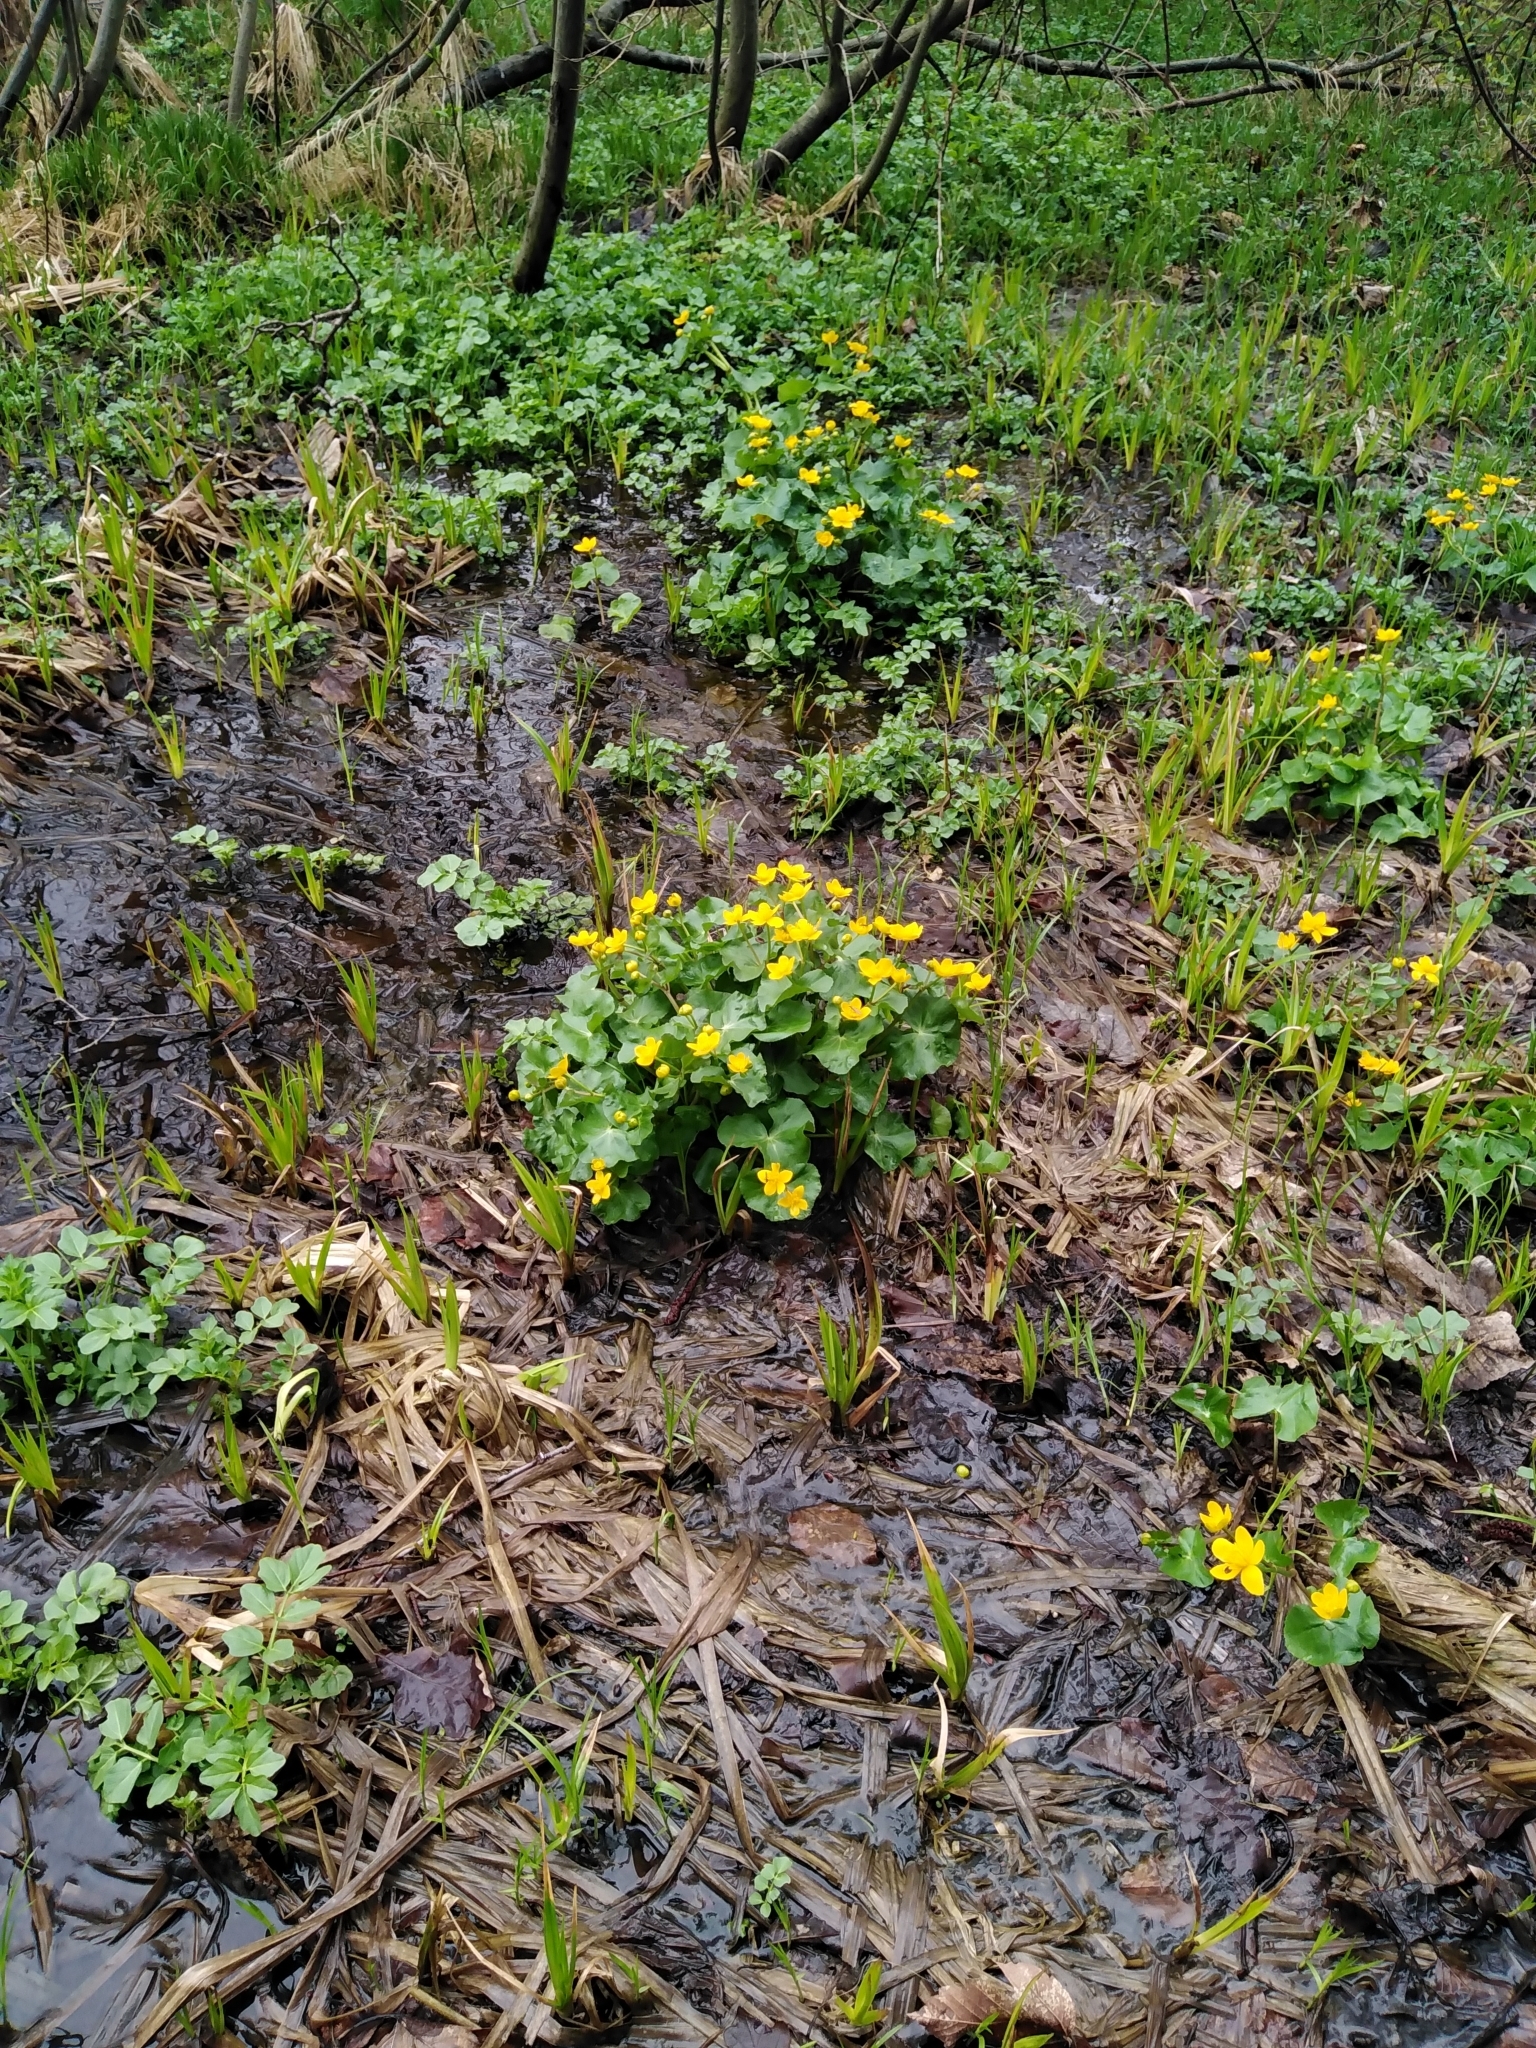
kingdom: Plantae
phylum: Tracheophyta
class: Magnoliopsida
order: Ranunculales
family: Ranunculaceae
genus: Caltha
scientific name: Caltha palustris
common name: Marsh marigold
